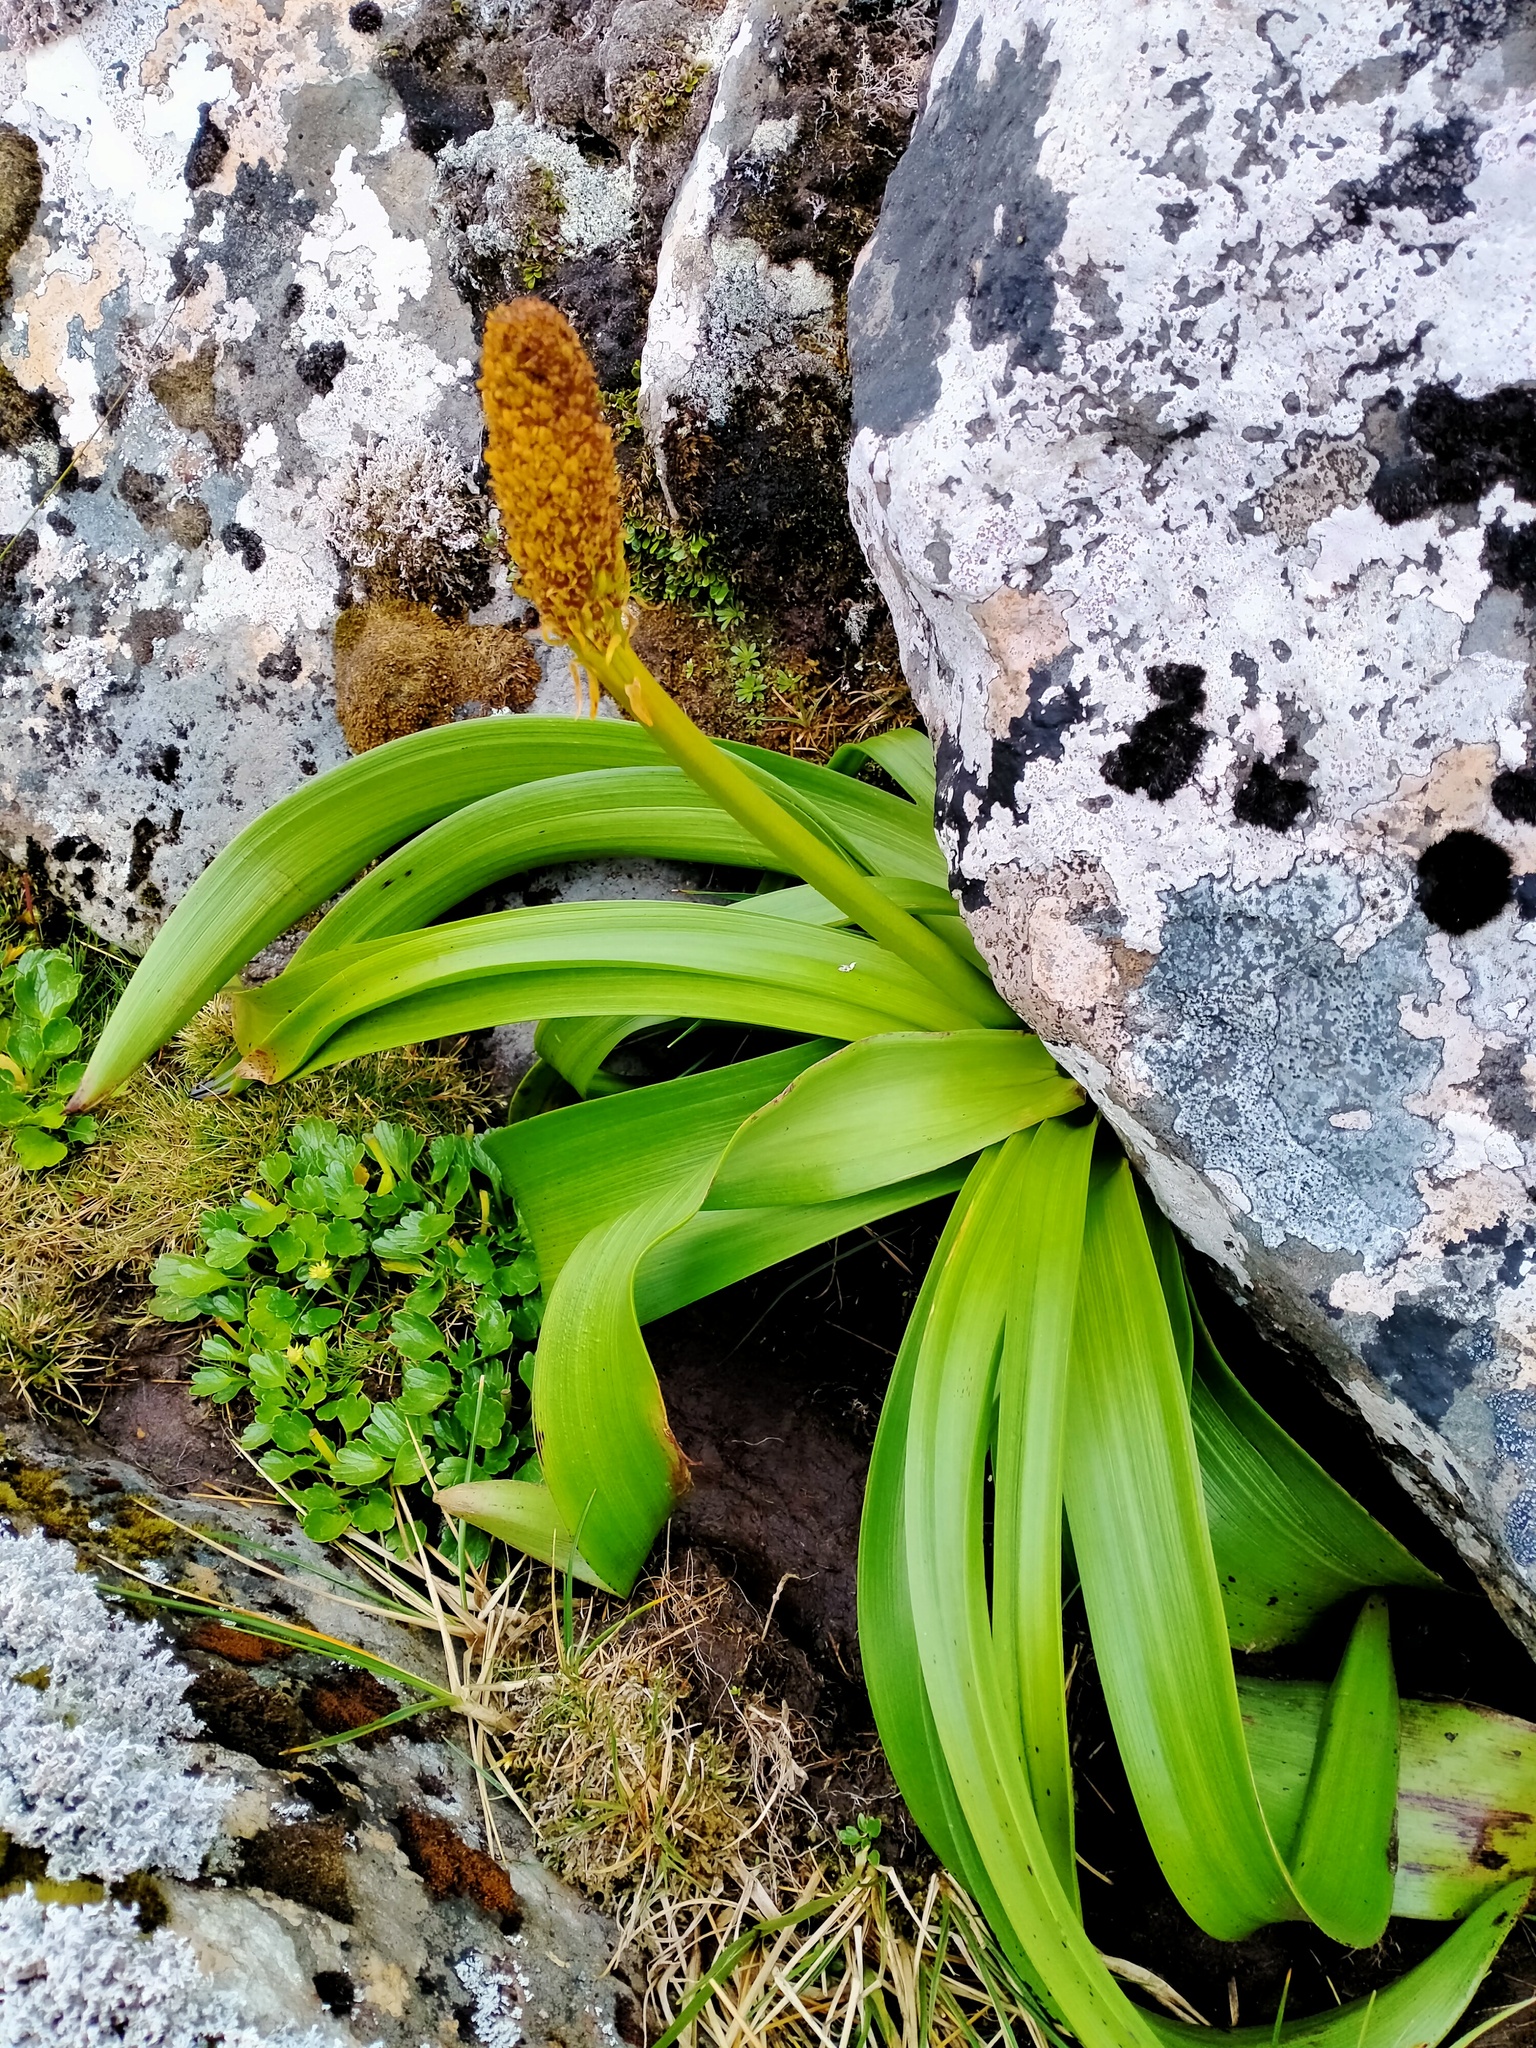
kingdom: Plantae
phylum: Tracheophyta
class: Liliopsida
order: Asparagales
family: Asphodelaceae
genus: Bulbinella
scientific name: Bulbinella rossii
